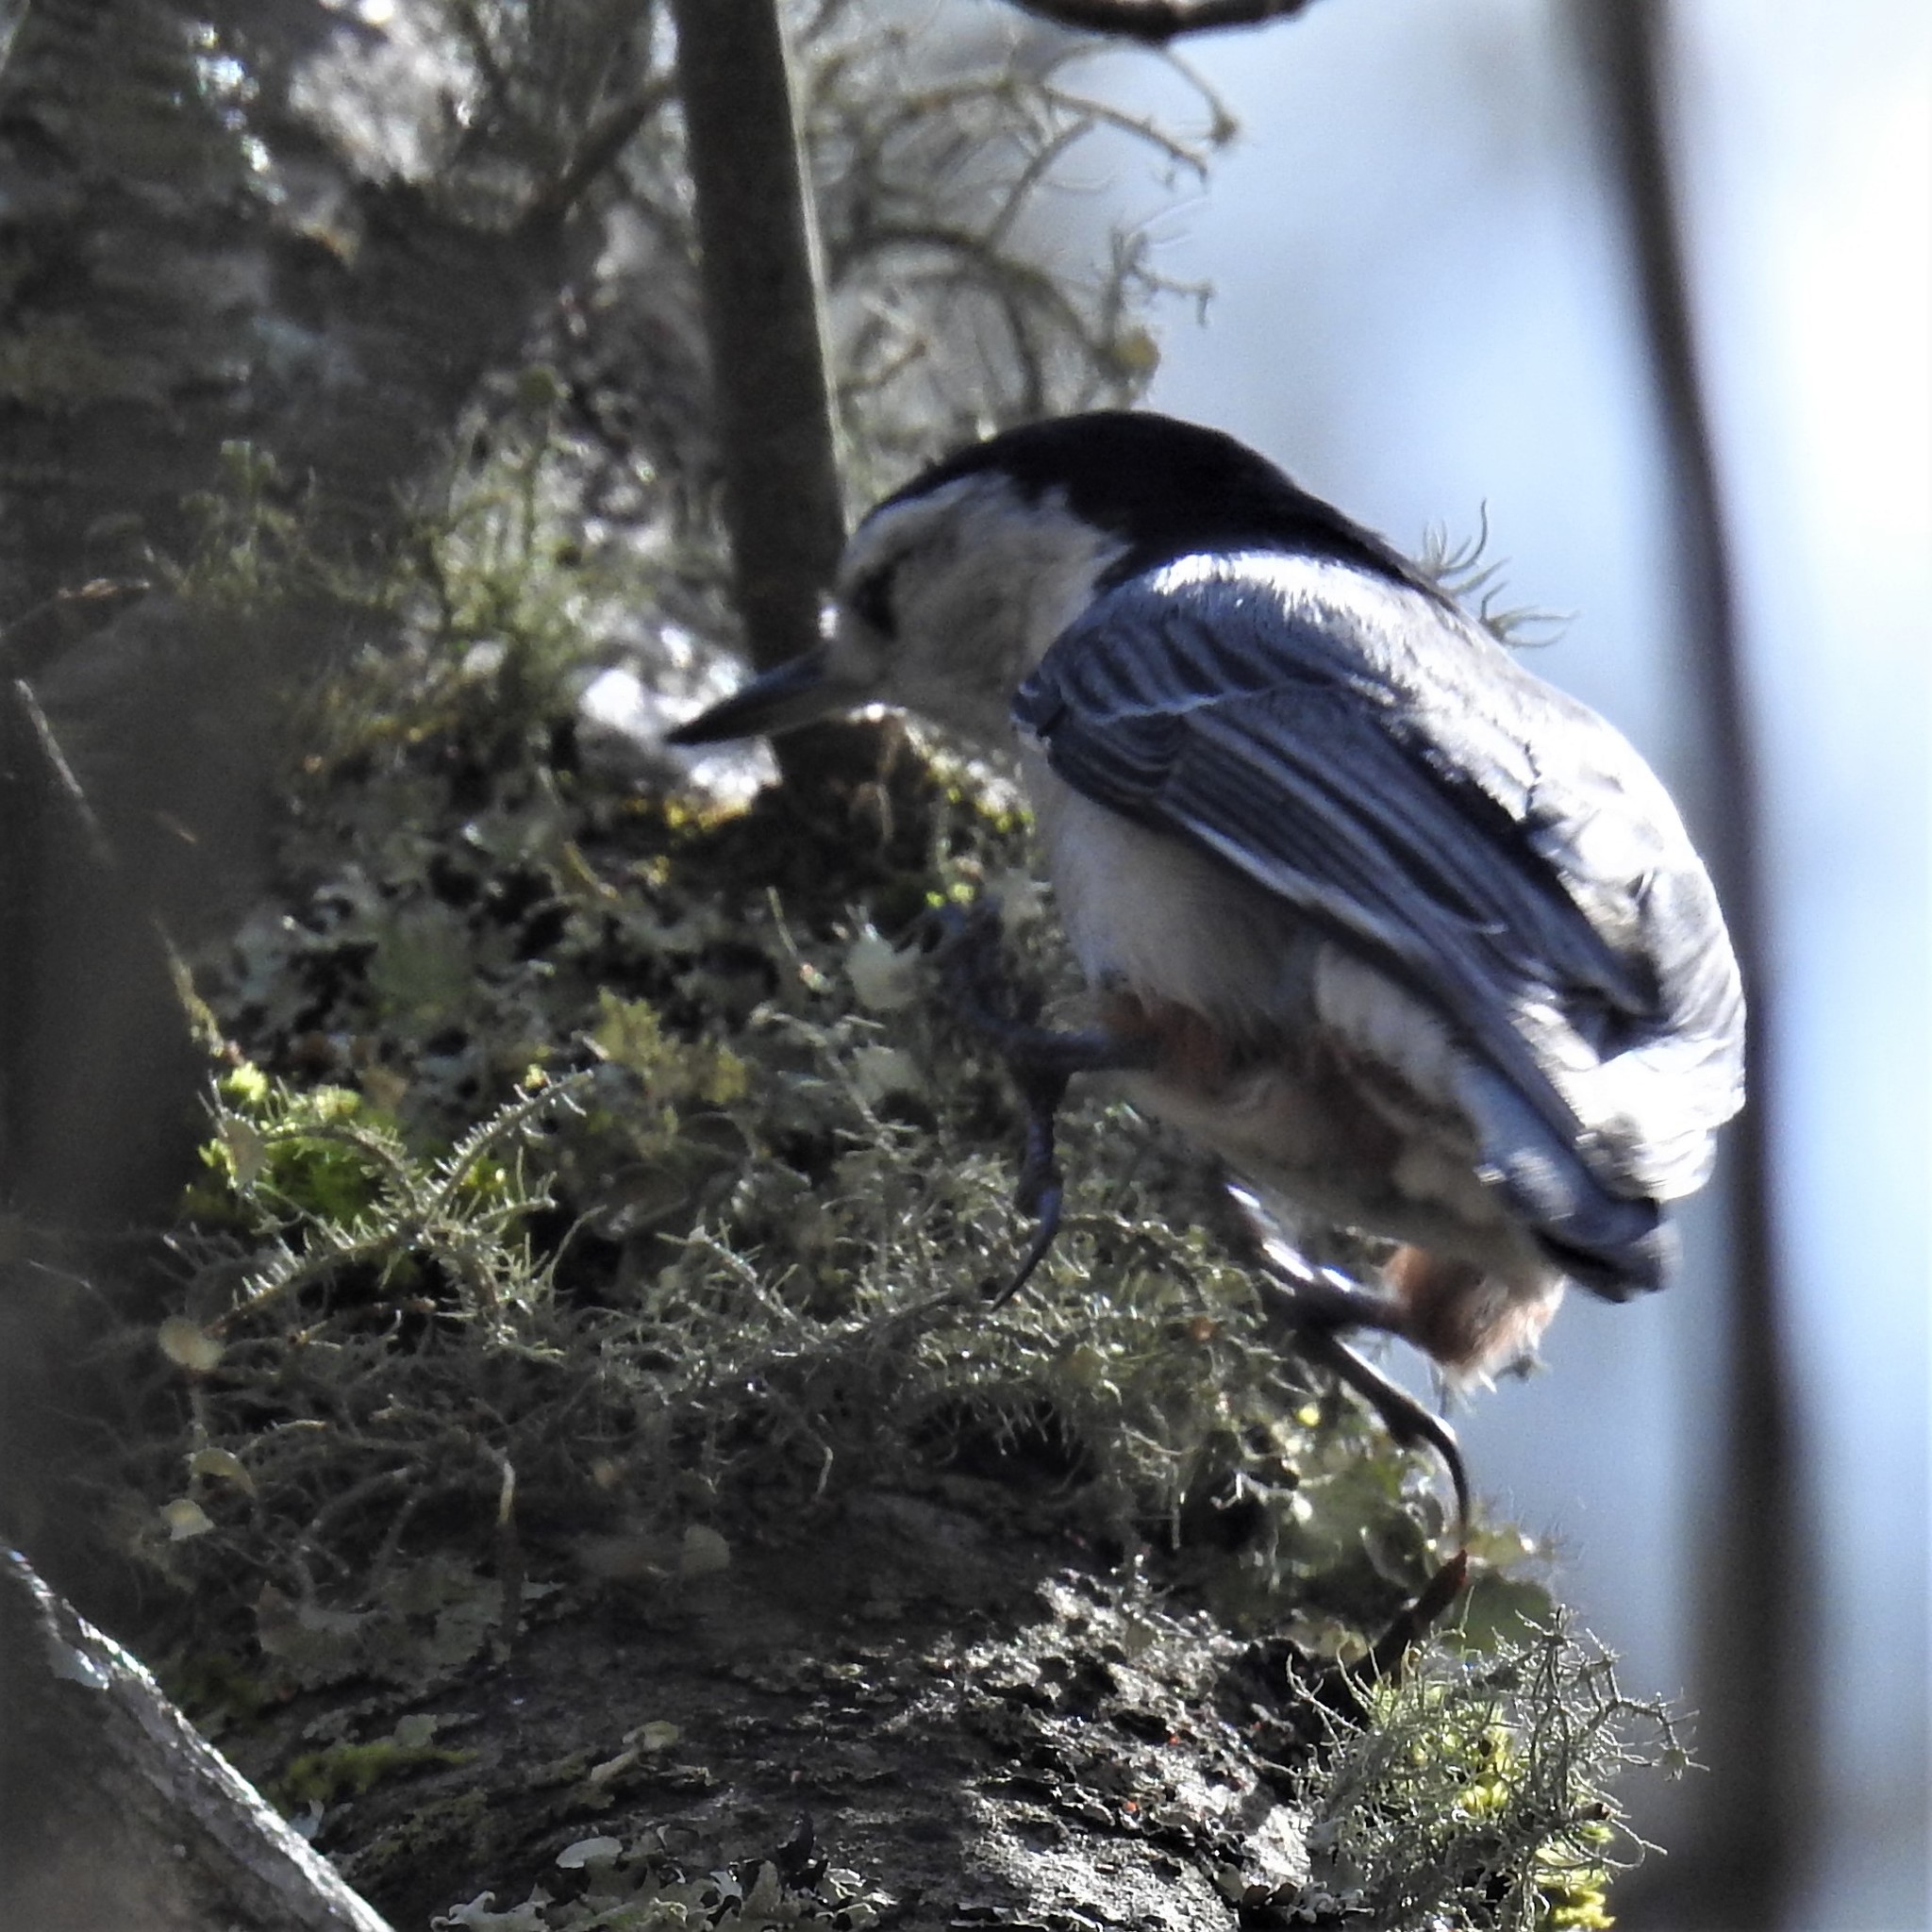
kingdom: Animalia
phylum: Chordata
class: Aves
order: Passeriformes
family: Sittidae
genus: Sitta
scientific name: Sitta carolinensis
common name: White-breasted nuthatch
